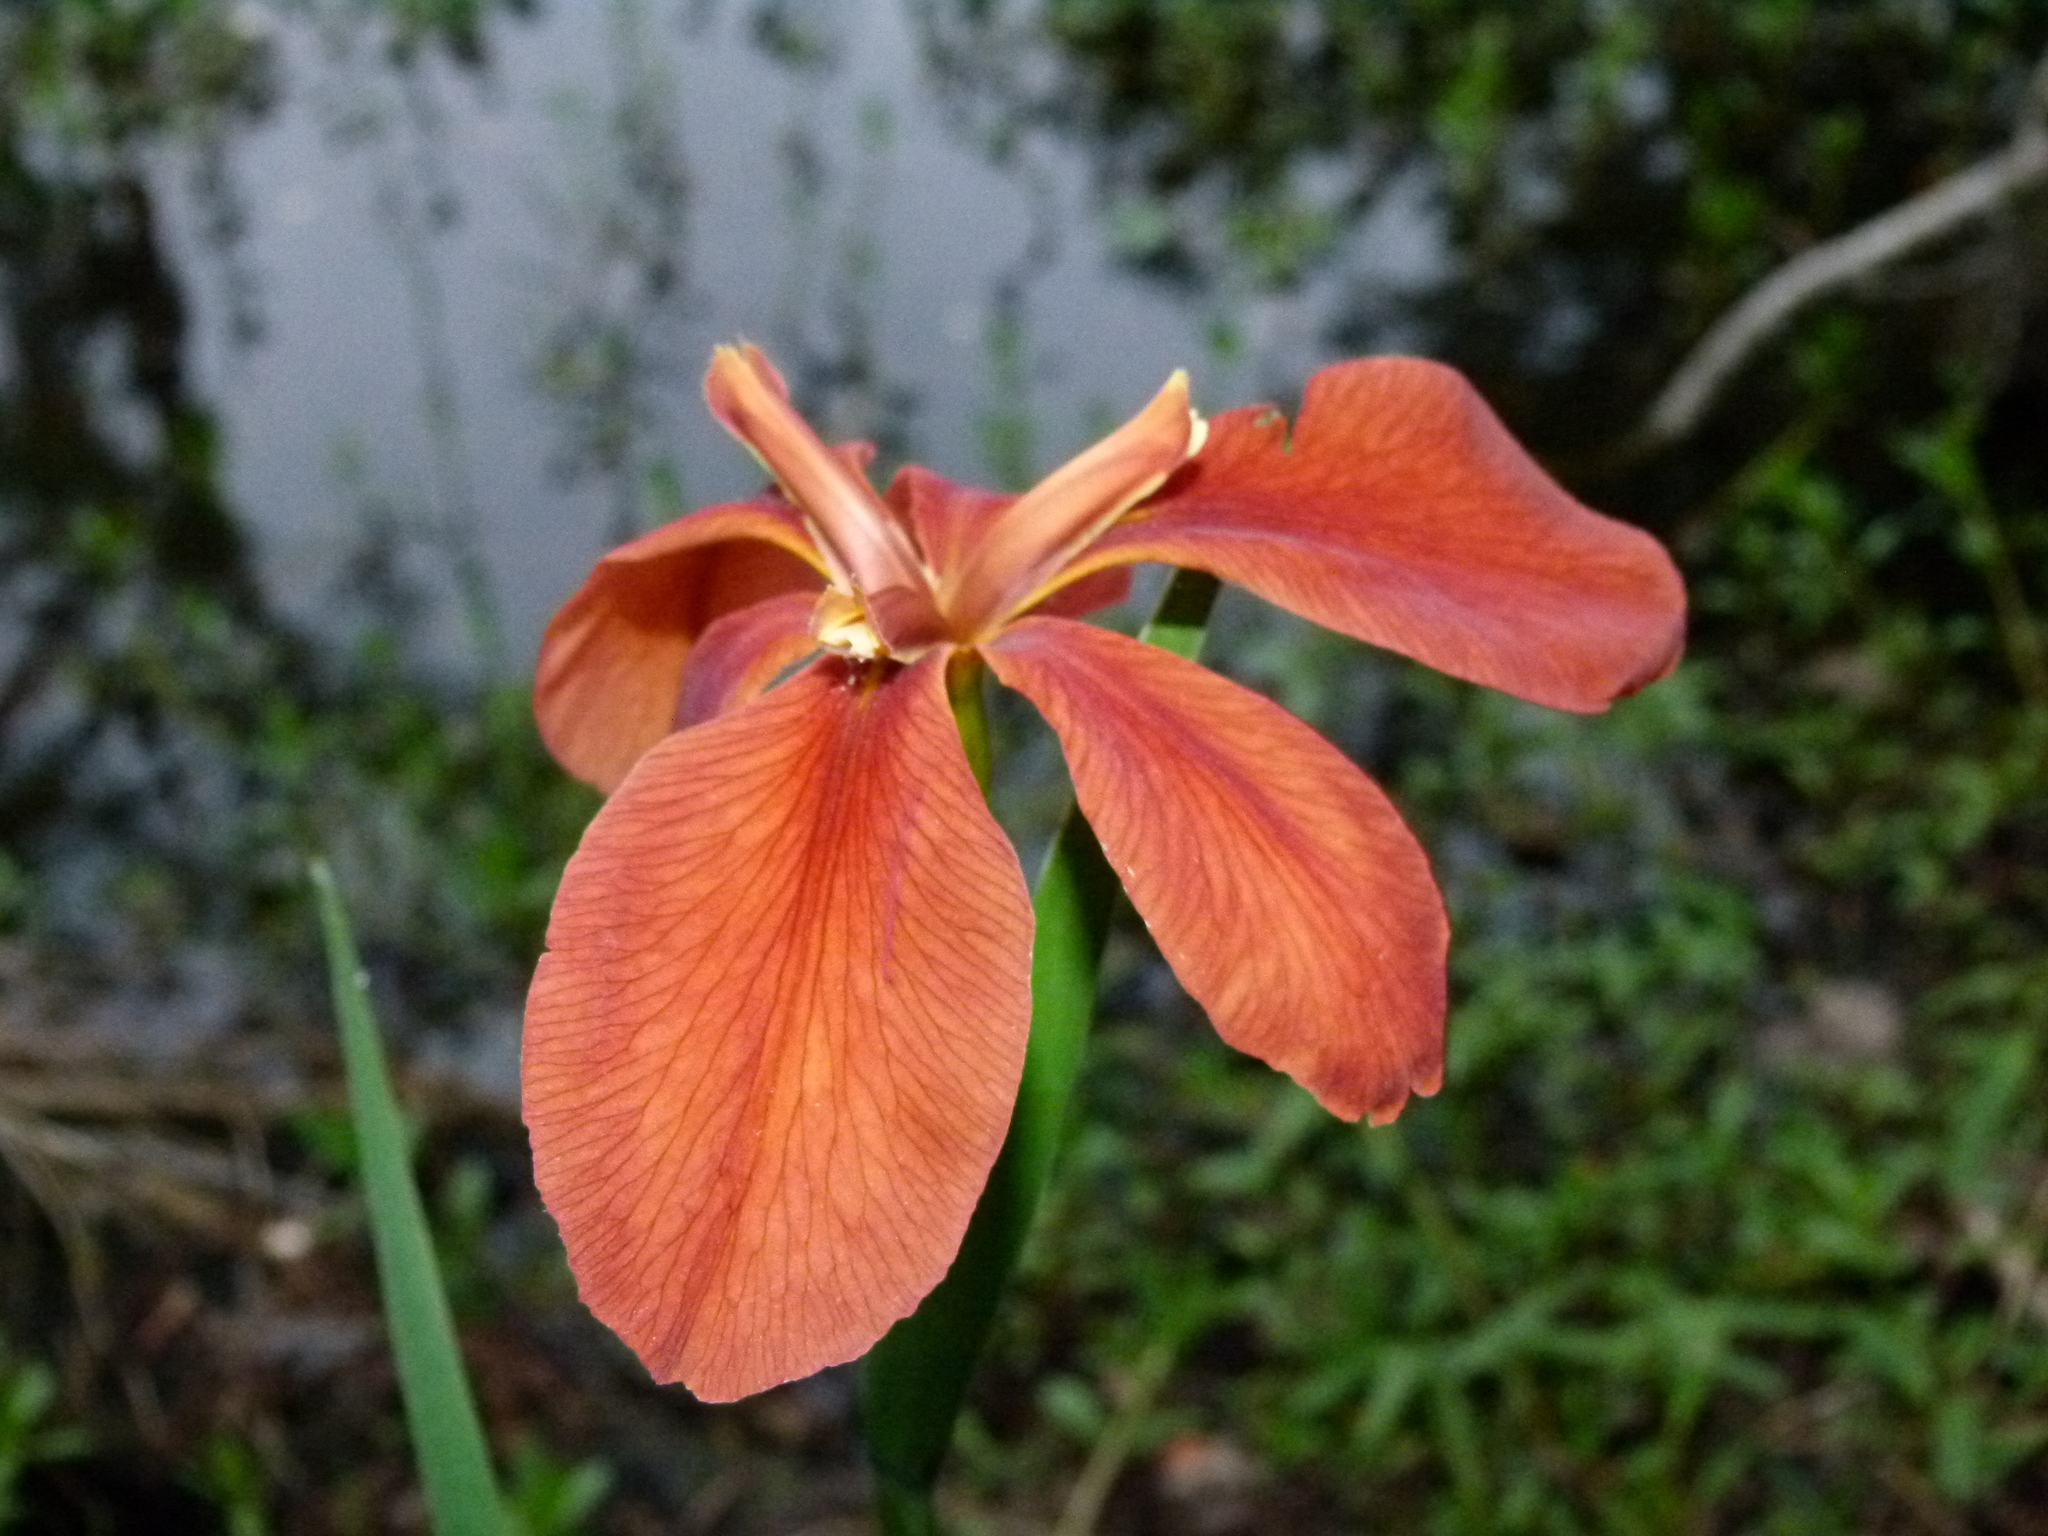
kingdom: Plantae
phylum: Tracheophyta
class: Liliopsida
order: Asparagales
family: Iridaceae
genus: Iris
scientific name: Iris fulva
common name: Copper iris
